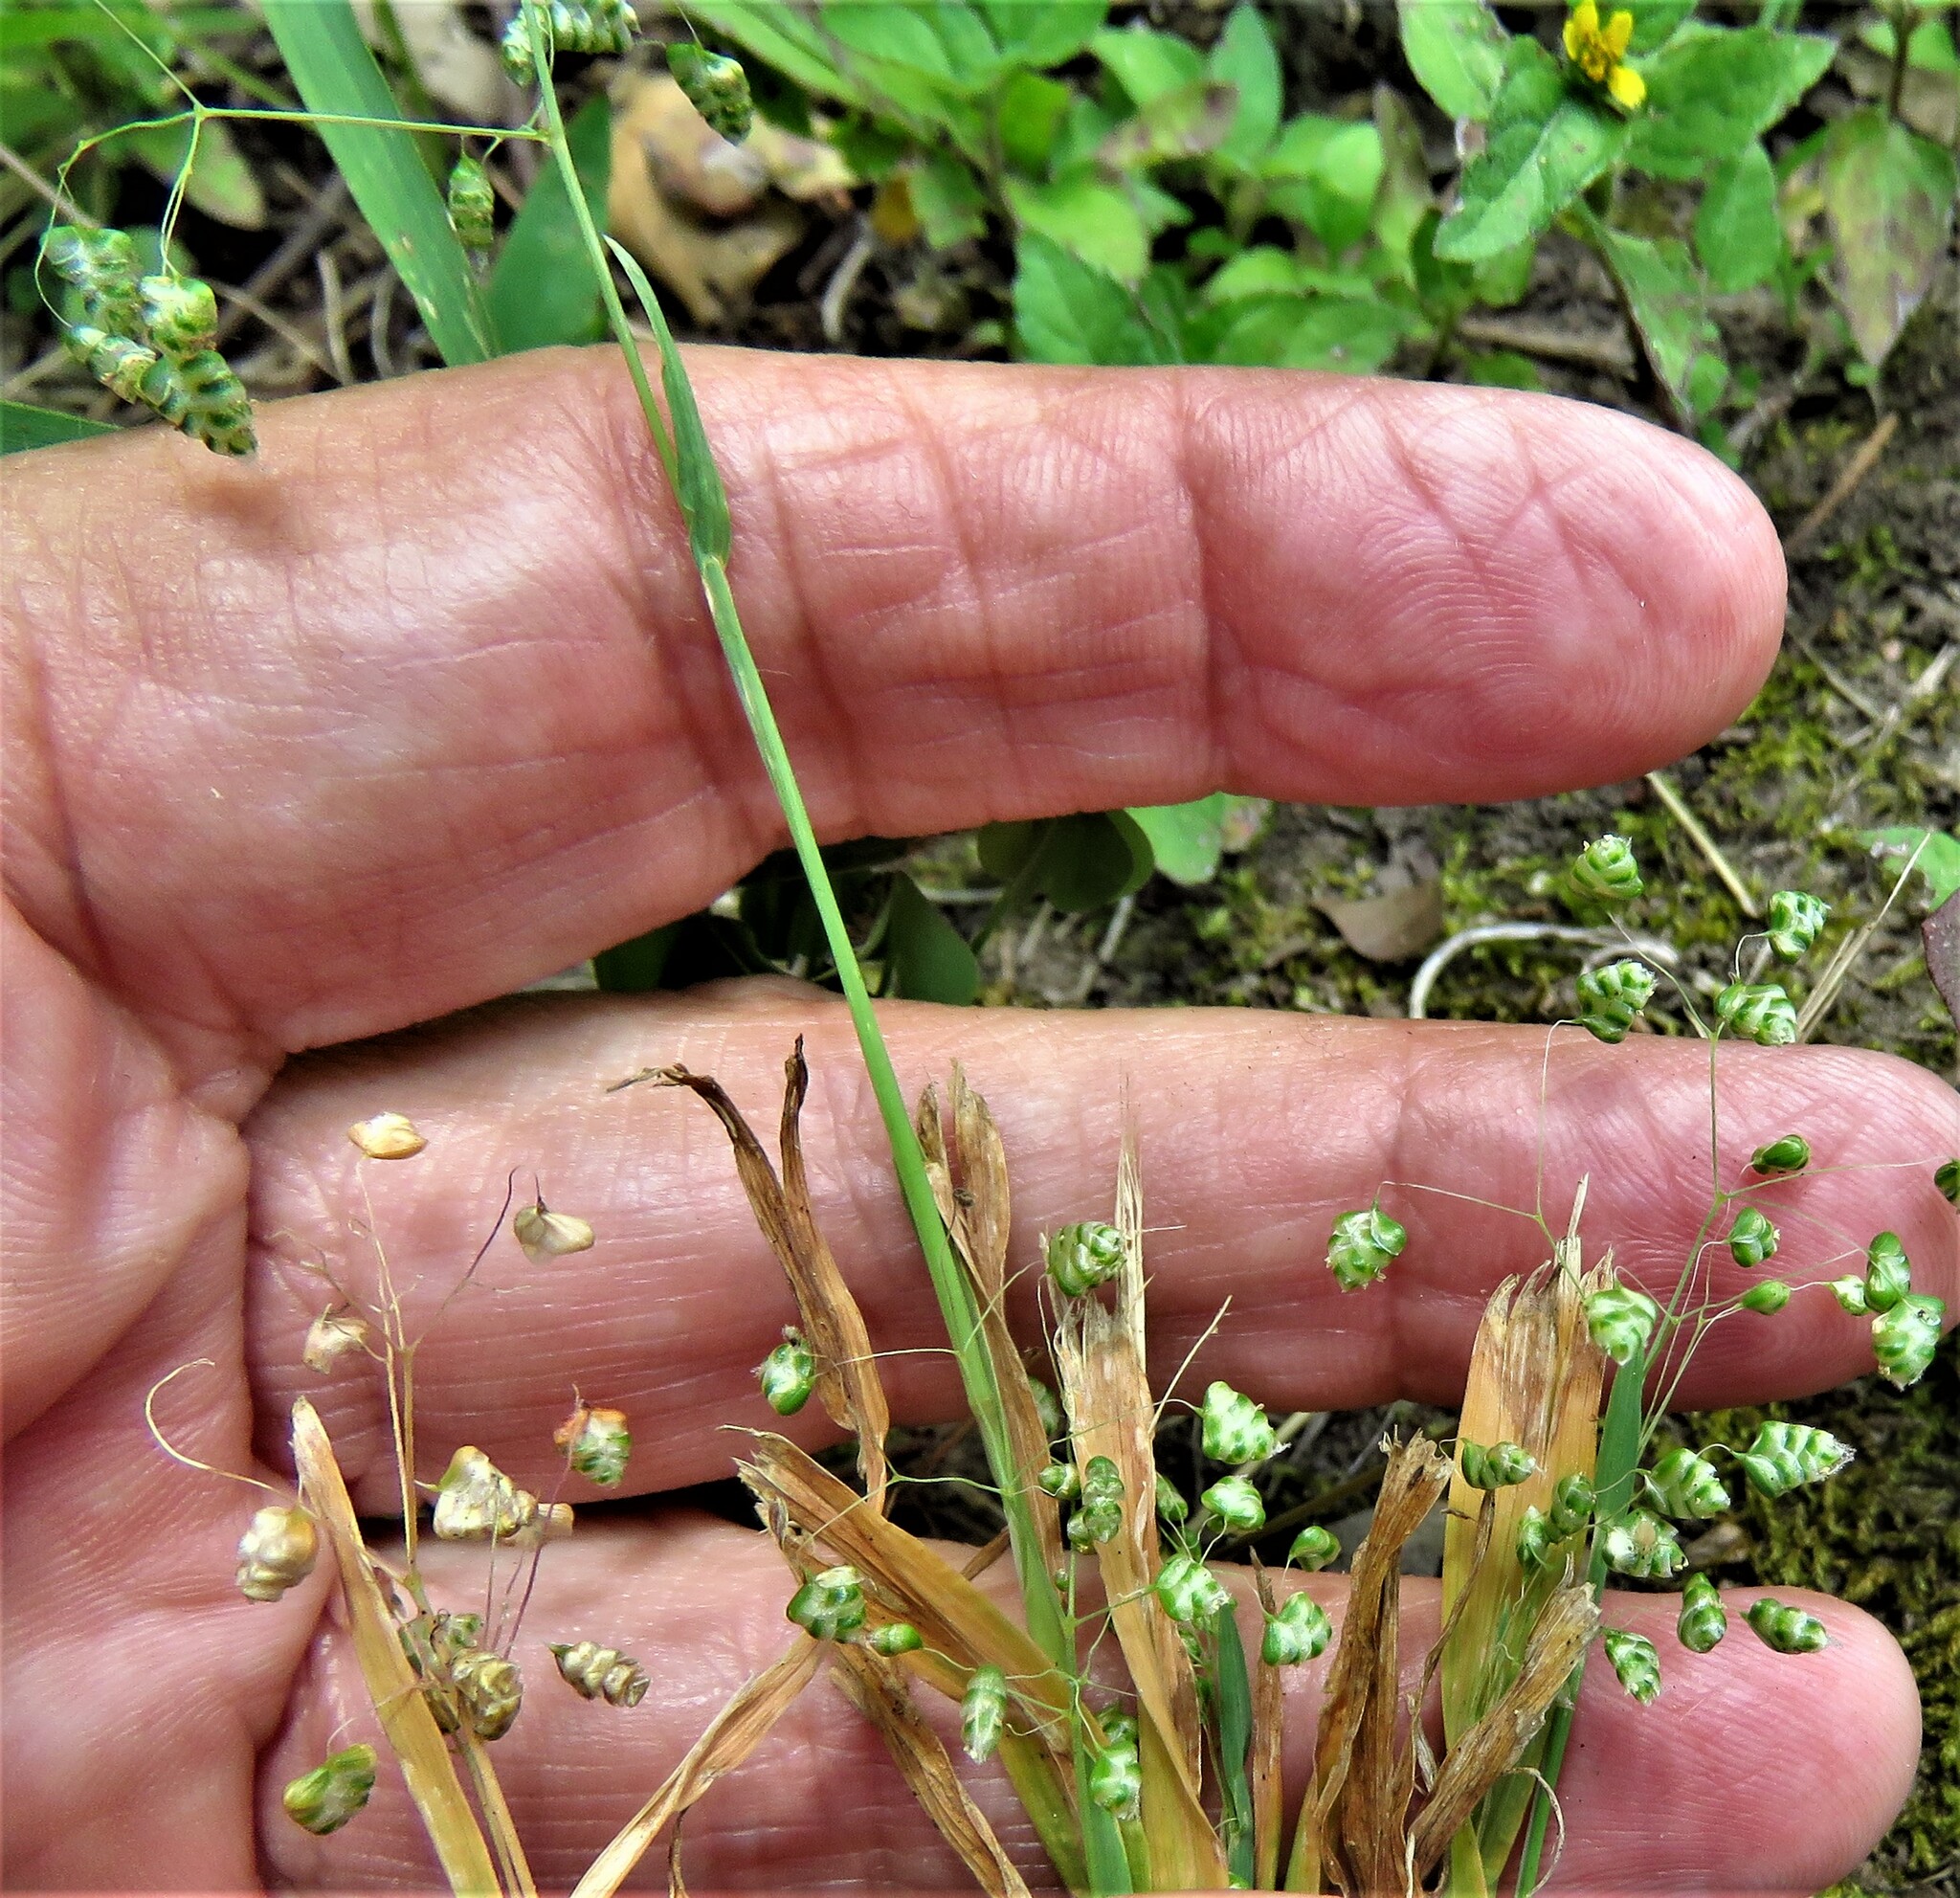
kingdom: Plantae
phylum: Tracheophyta
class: Liliopsida
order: Poales
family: Poaceae
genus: Briza
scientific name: Briza minor
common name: Lesser quaking-grass
